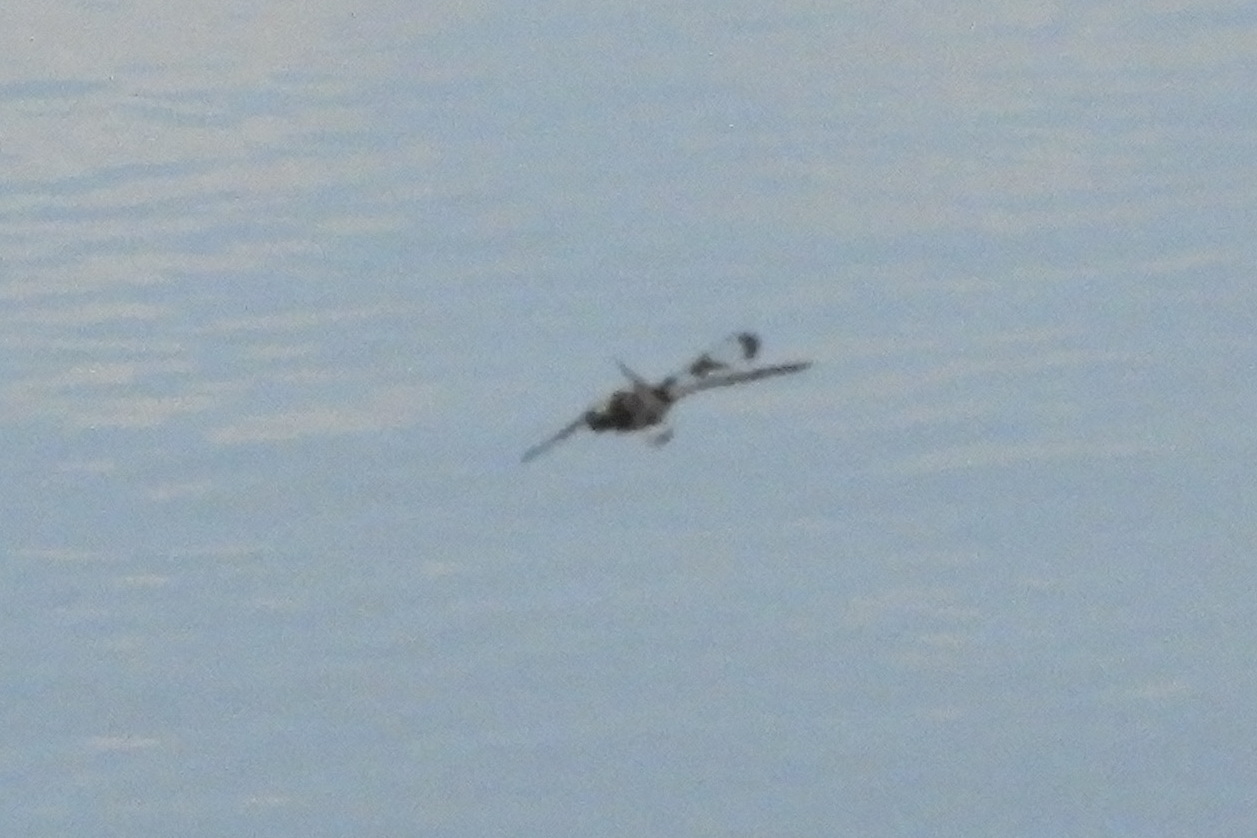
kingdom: Animalia
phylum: Arthropoda
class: Insecta
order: Odonata
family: Corduliidae
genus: Epitheca
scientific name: Epitheca princeps
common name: Prince baskettail
